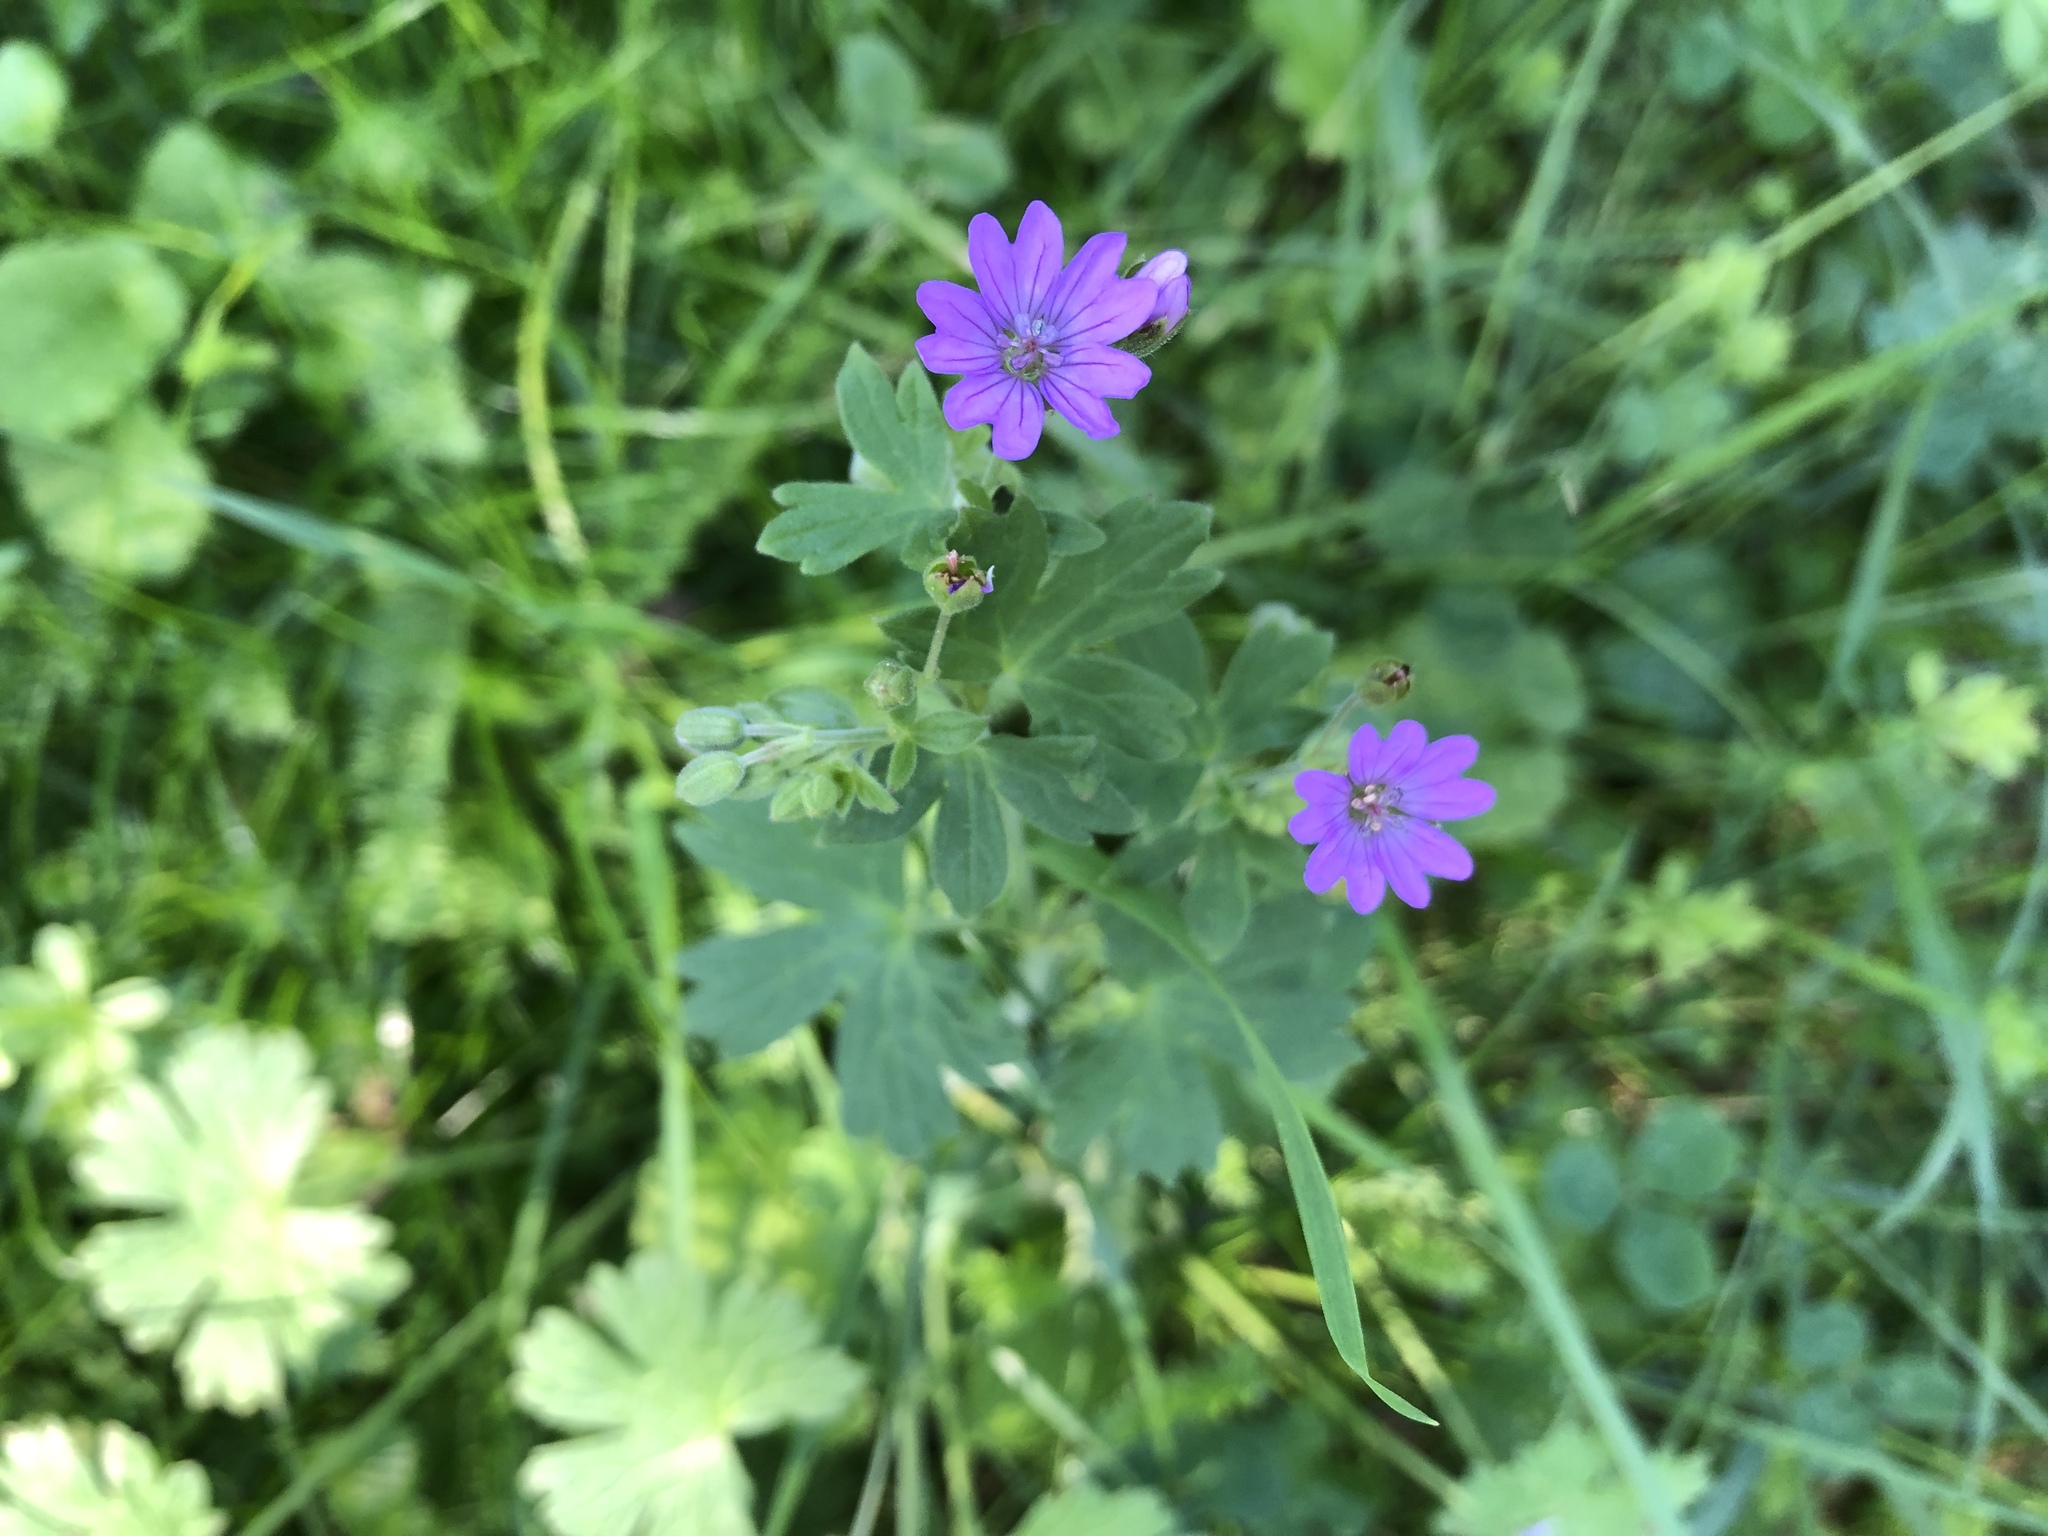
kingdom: Plantae
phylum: Tracheophyta
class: Magnoliopsida
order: Geraniales
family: Geraniaceae
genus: Geranium
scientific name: Geranium pyrenaicum
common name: Hedgerow crane's-bill
